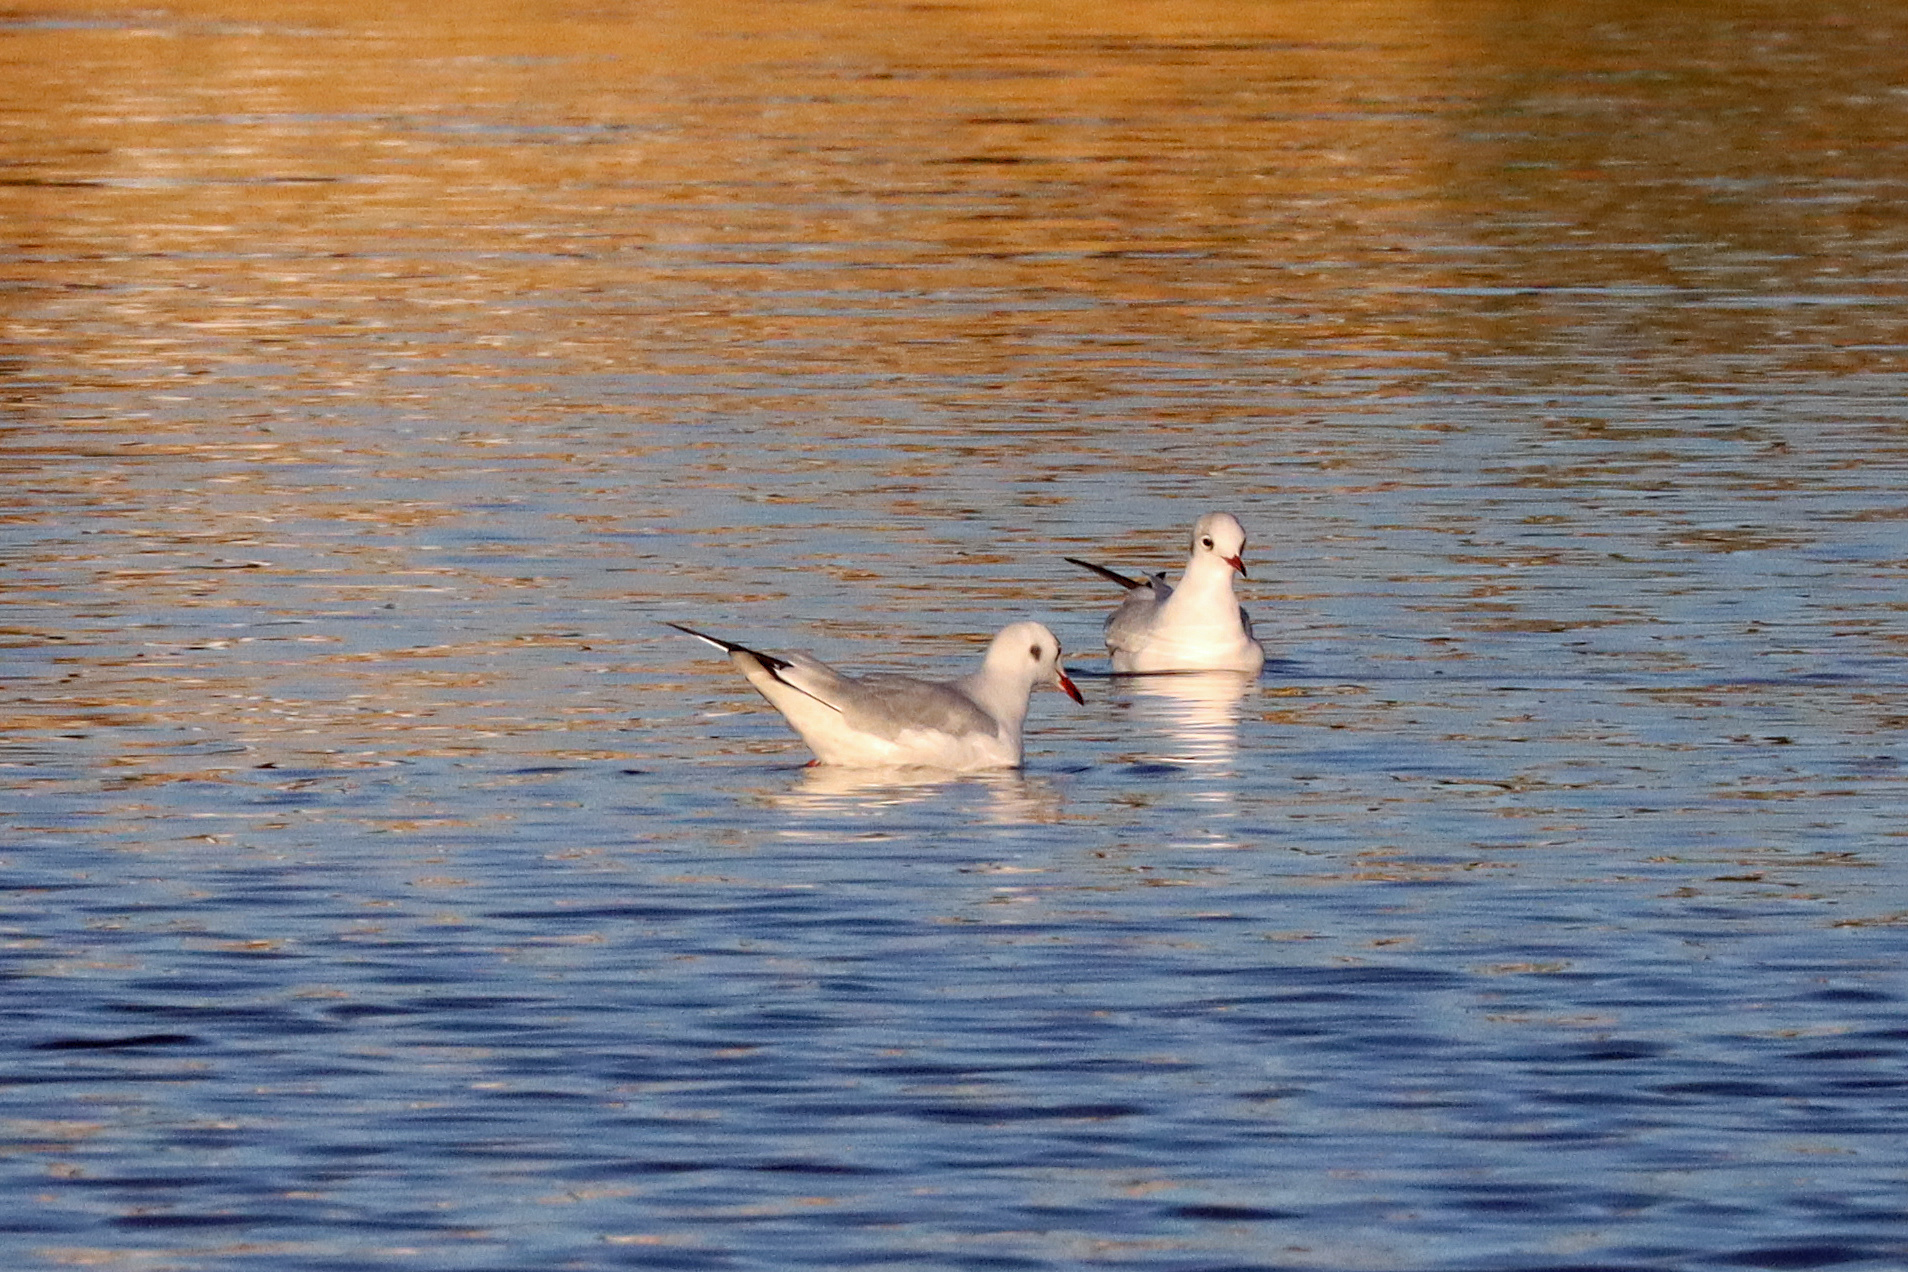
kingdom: Animalia
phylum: Chordata
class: Aves
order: Charadriiformes
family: Laridae
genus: Chroicocephalus
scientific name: Chroicocephalus ridibundus
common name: Black-headed gull
